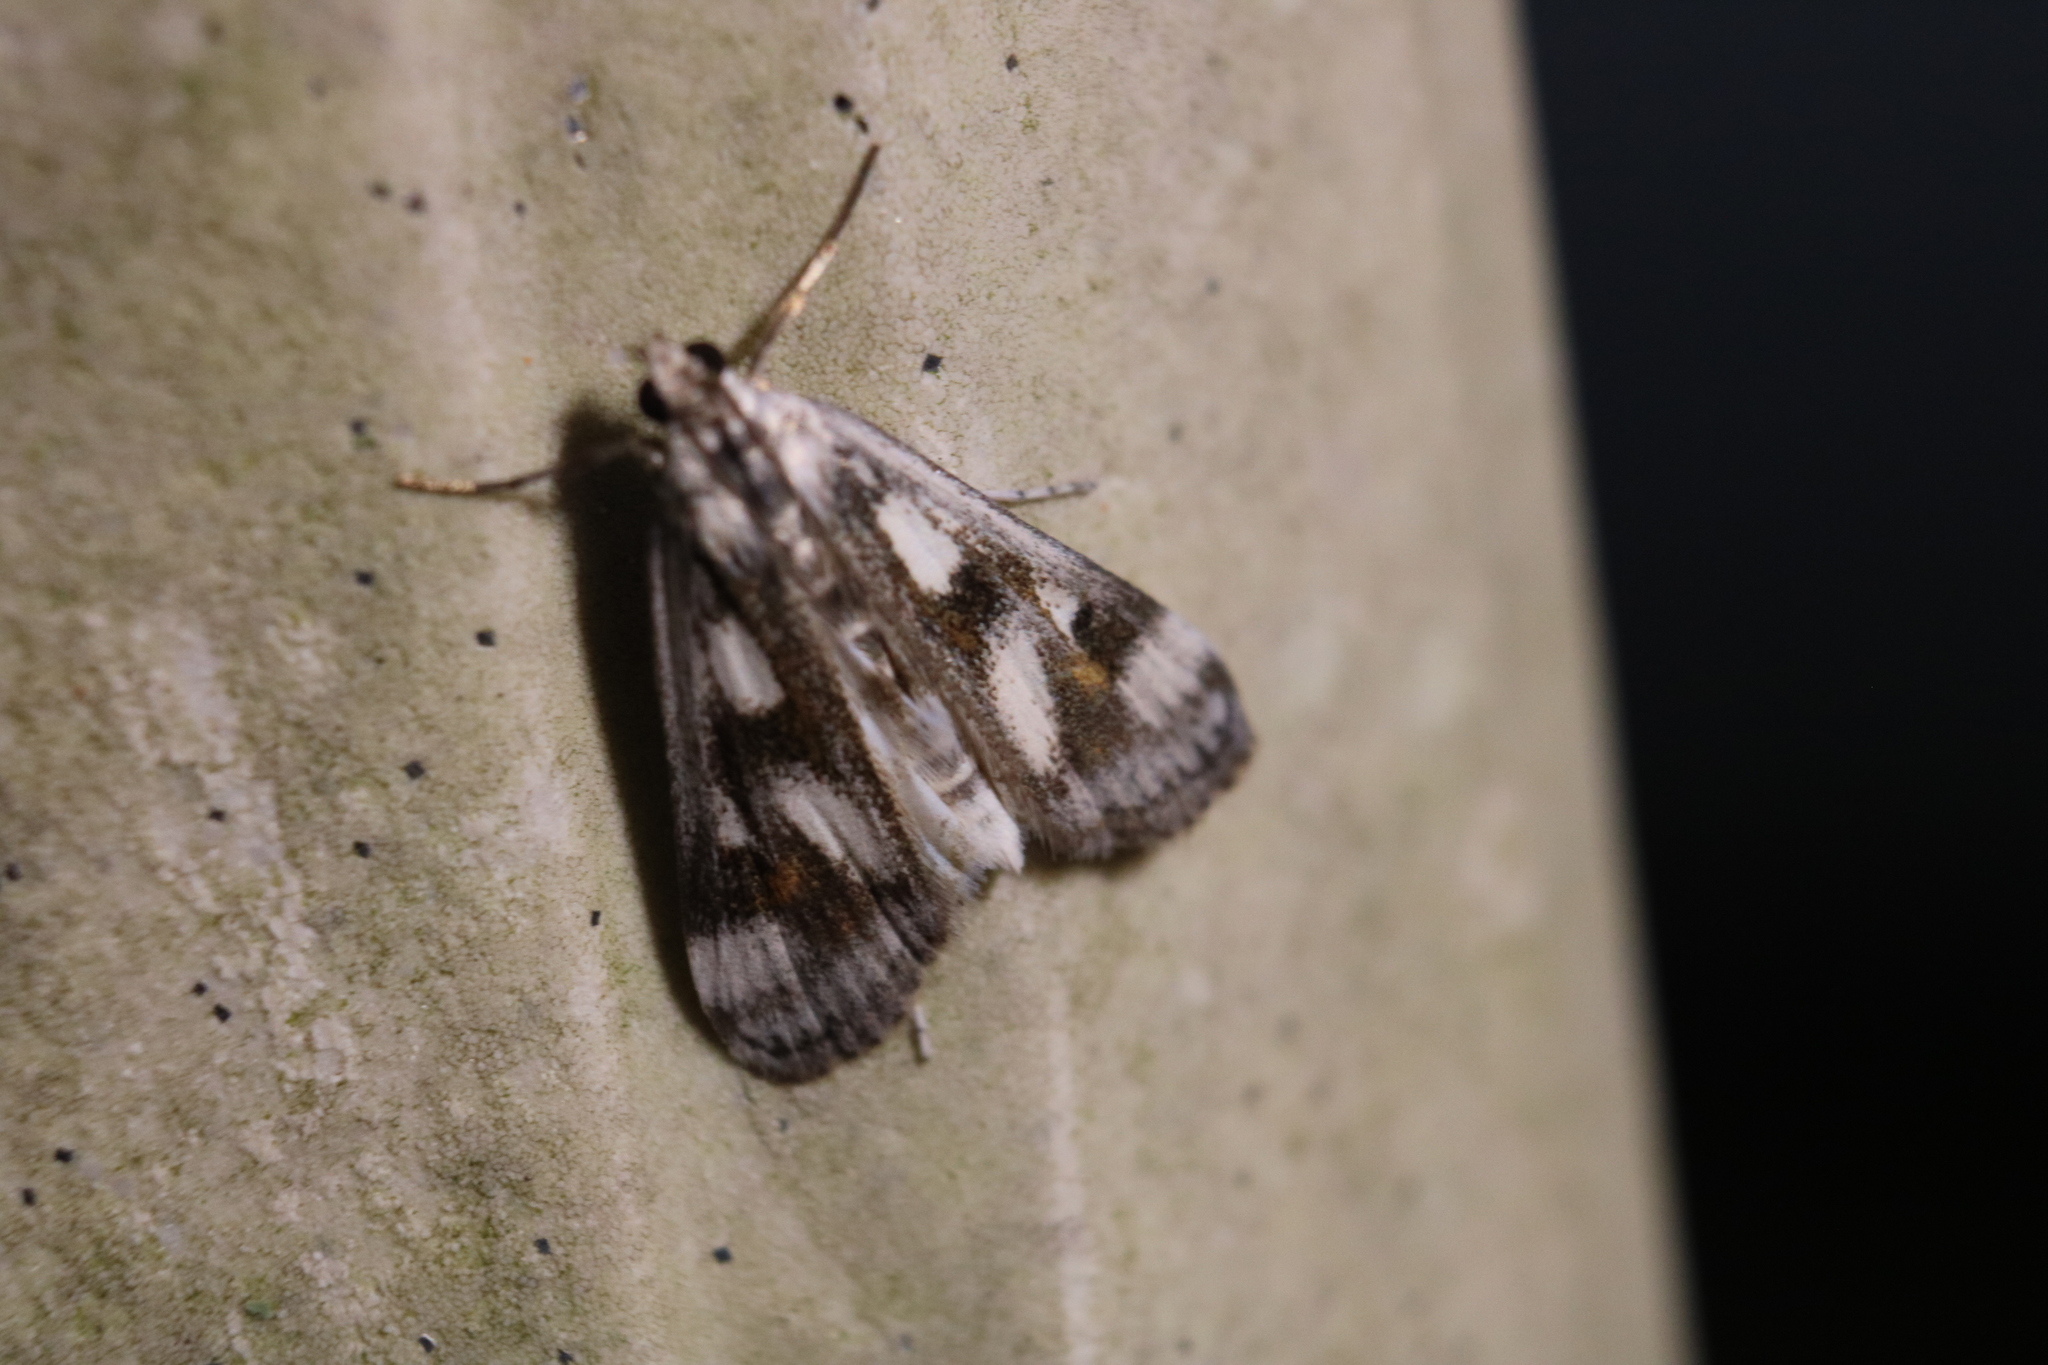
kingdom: Animalia
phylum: Arthropoda
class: Insecta
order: Lepidoptera
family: Crambidae
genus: Parapoynx
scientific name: Parapoynx maculalis
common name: Polymorphic pondweed moth
